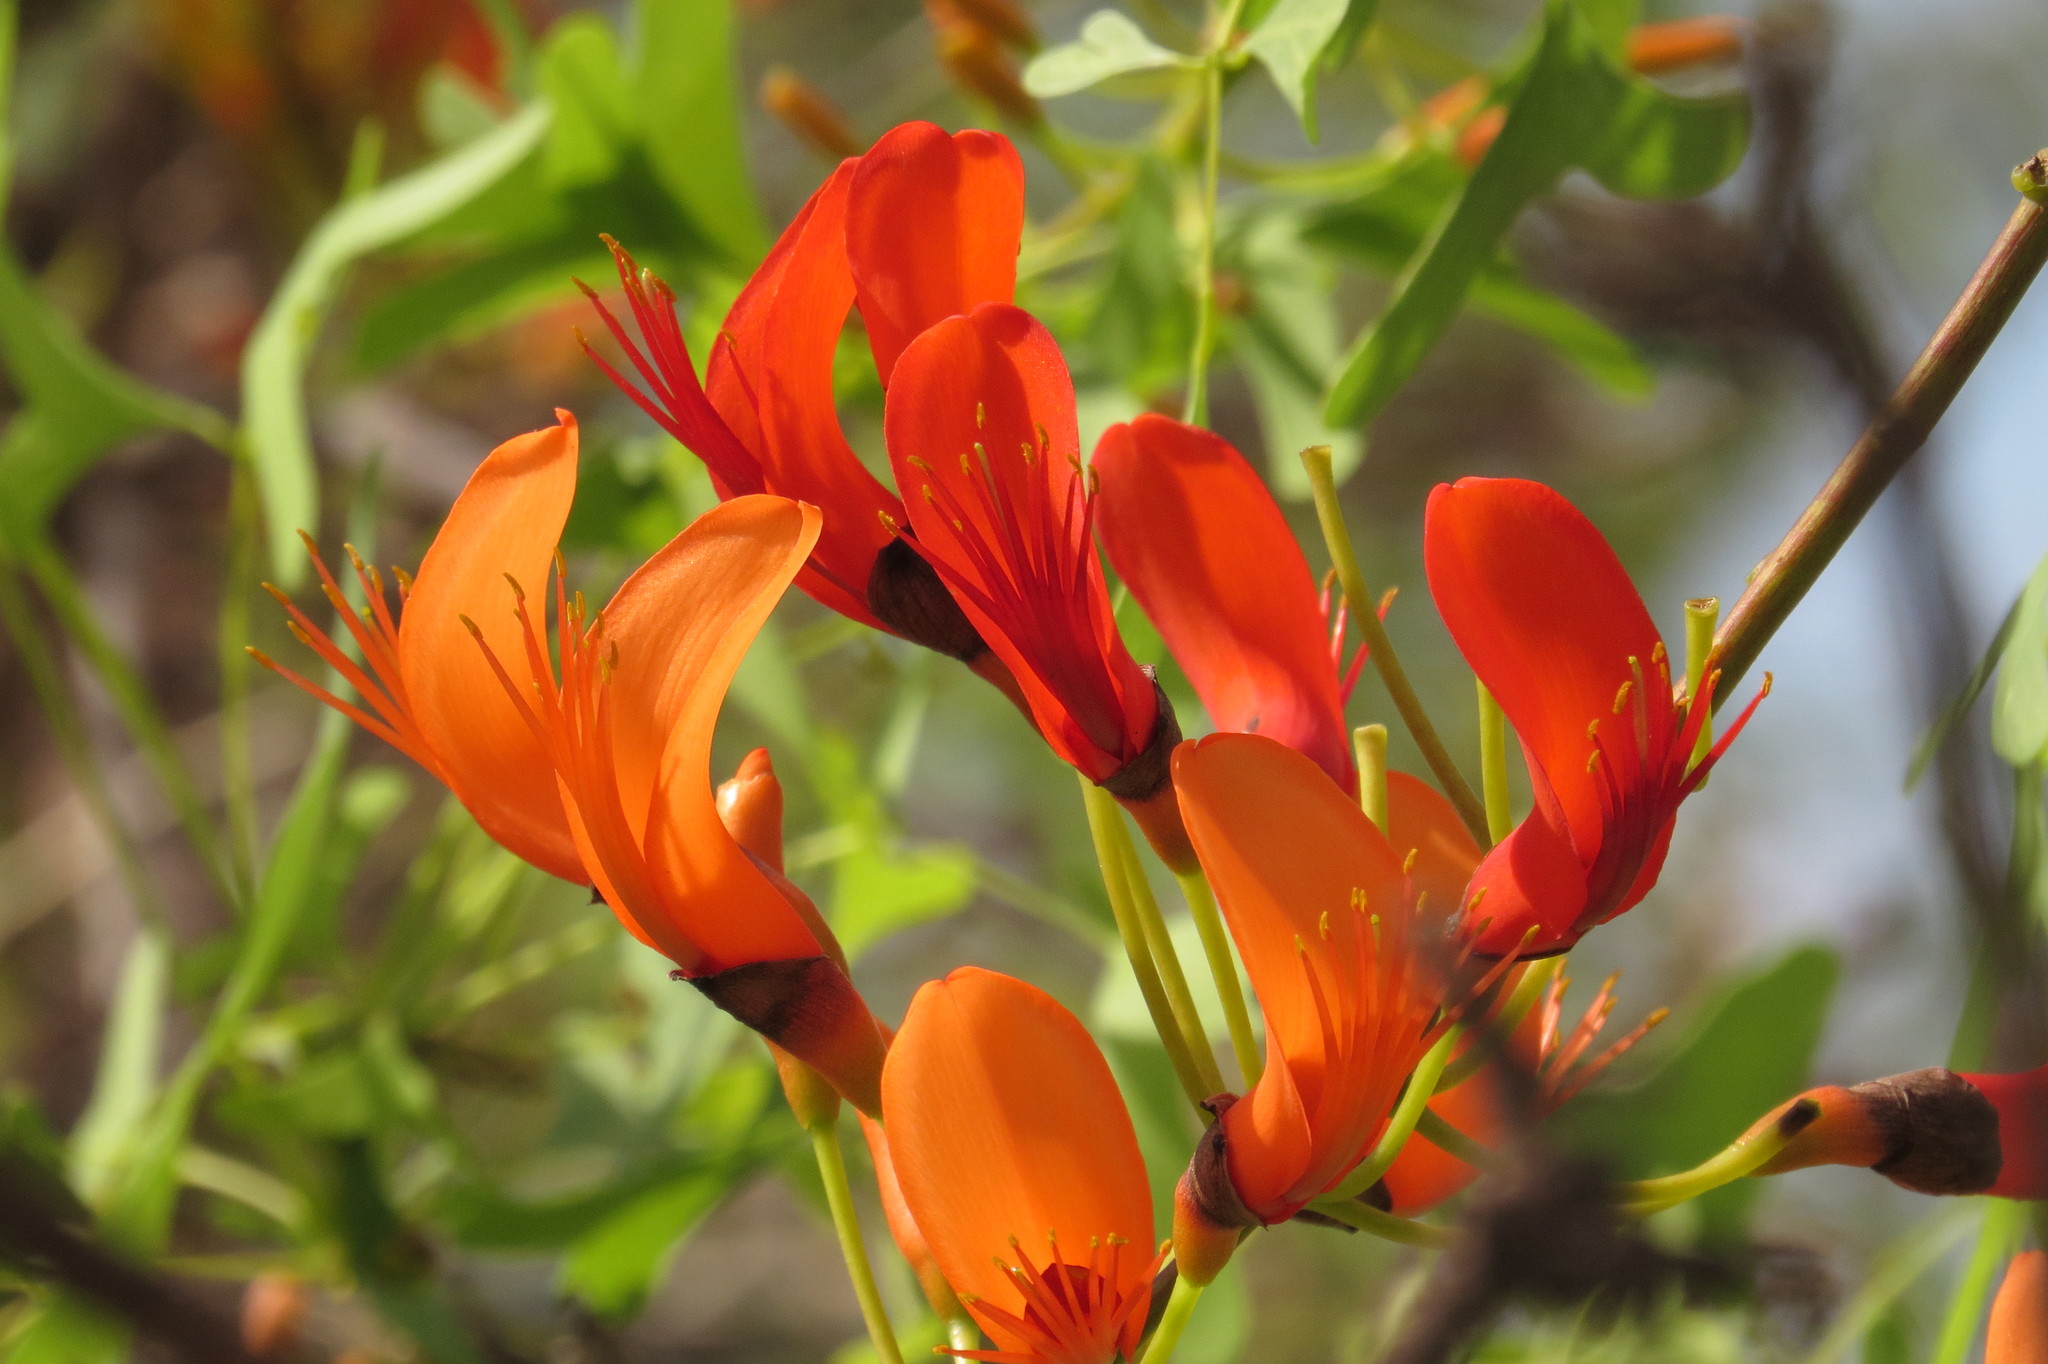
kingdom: Plantae
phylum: Tracheophyta
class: Magnoliopsida
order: Fabales
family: Fabaceae
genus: Erythrina
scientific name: Erythrina vespertilio
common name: Bat-wing coral tree
